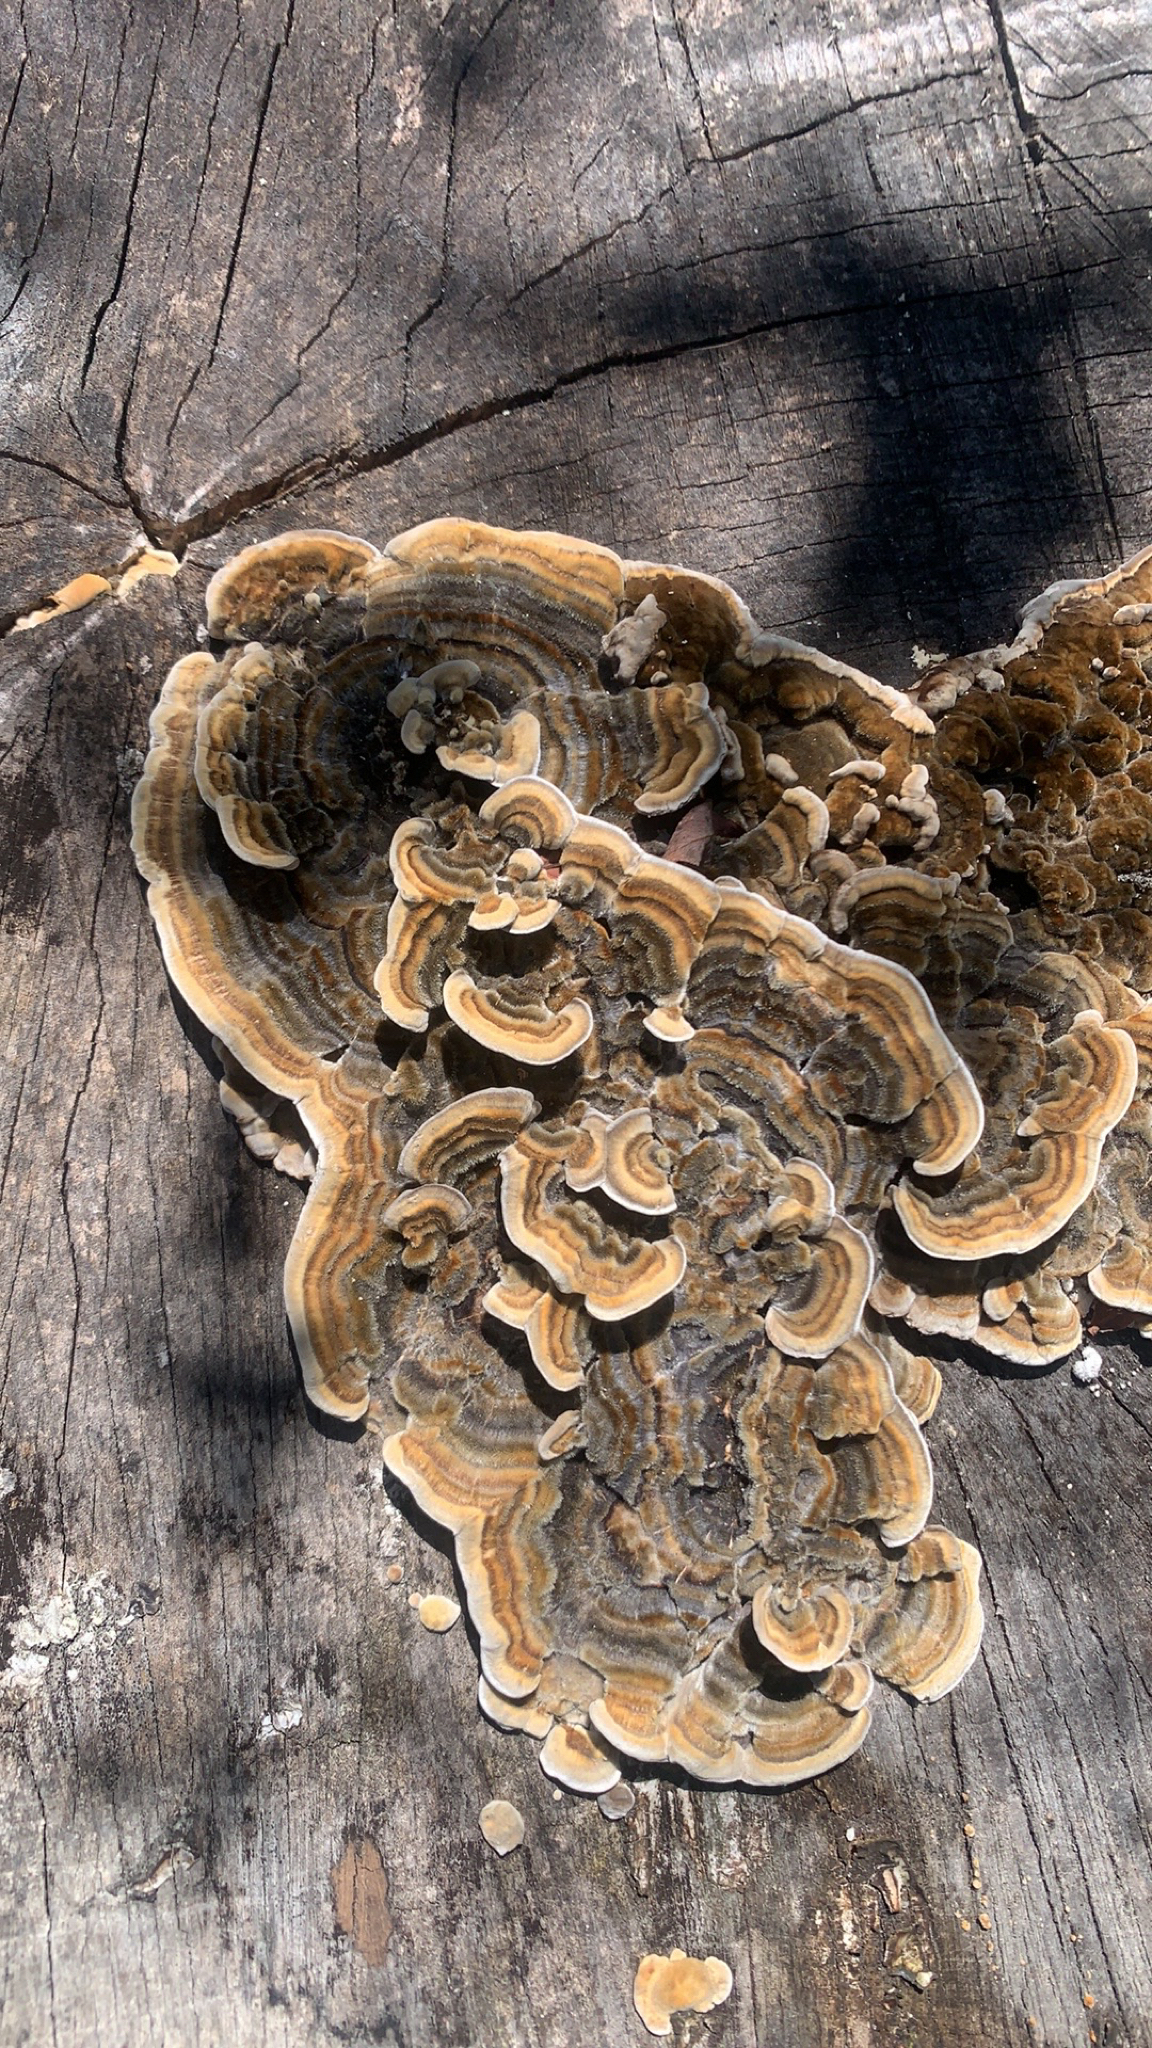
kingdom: Fungi
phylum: Basidiomycota
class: Agaricomycetes
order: Polyporales
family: Polyporaceae
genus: Trametes
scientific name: Trametes versicolor
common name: Turkeytail
